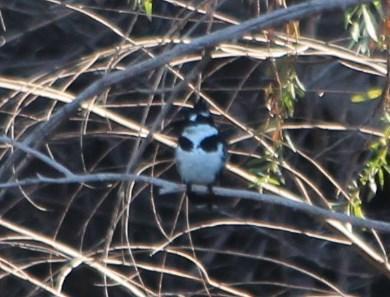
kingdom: Animalia
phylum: Chordata
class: Aves
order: Coraciiformes
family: Alcedinidae
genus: Ceryle
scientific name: Ceryle rudis
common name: Pied kingfisher
